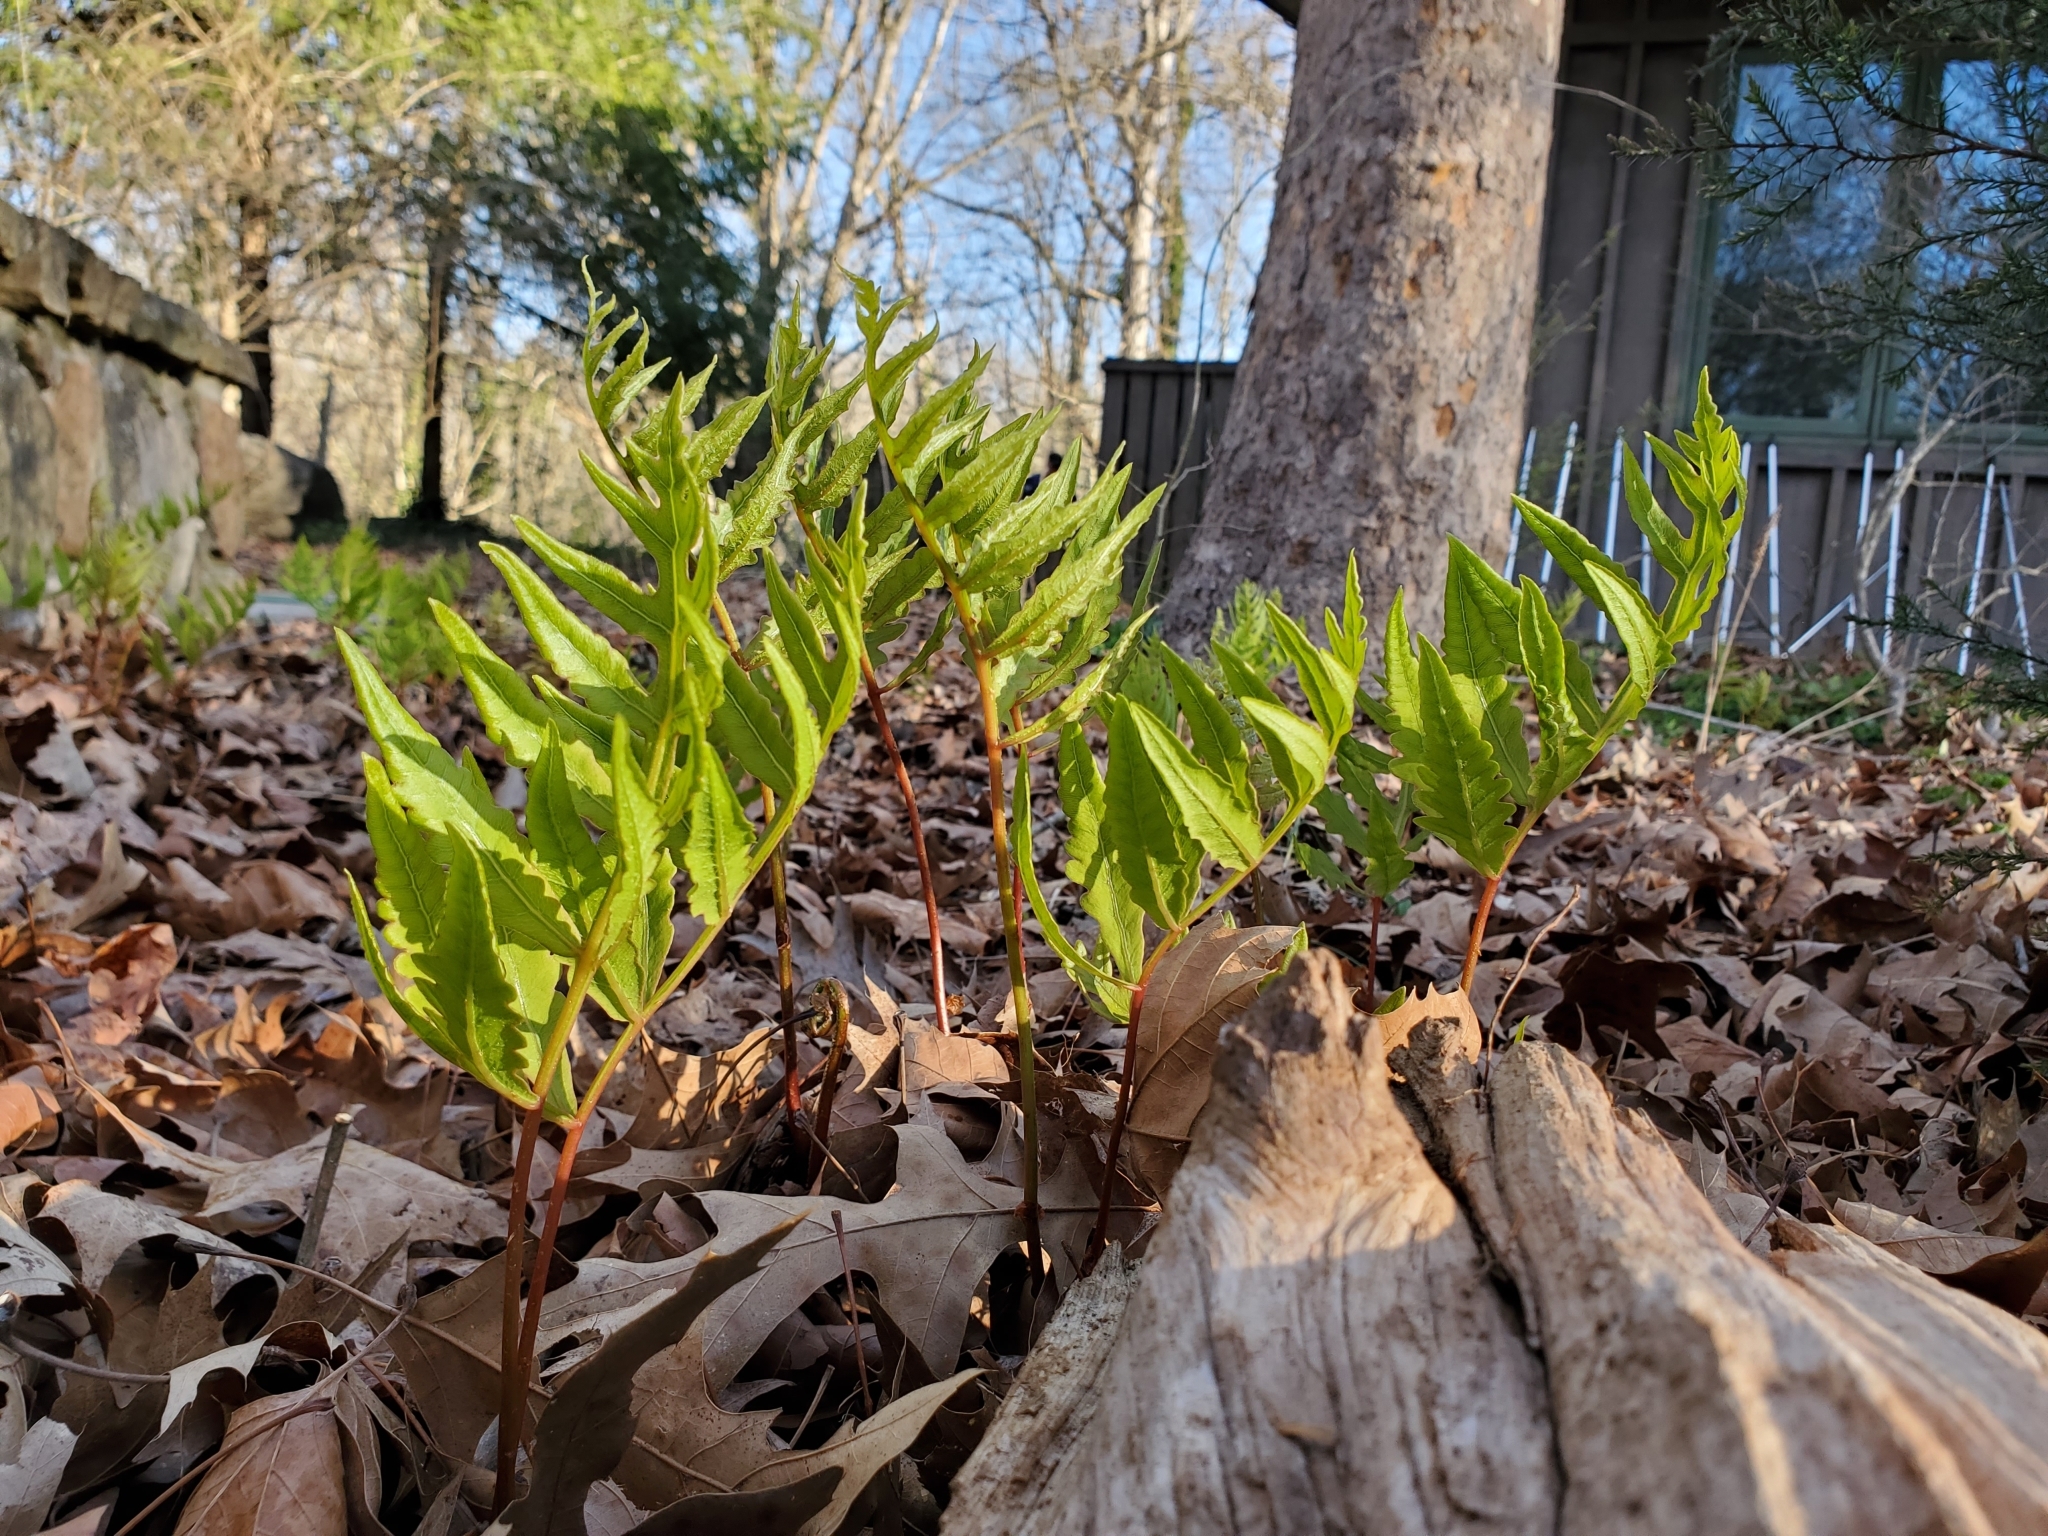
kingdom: Plantae
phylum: Tracheophyta
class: Polypodiopsida
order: Polypodiales
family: Onocleaceae
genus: Onoclea
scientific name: Onoclea sensibilis
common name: Sensitive fern
